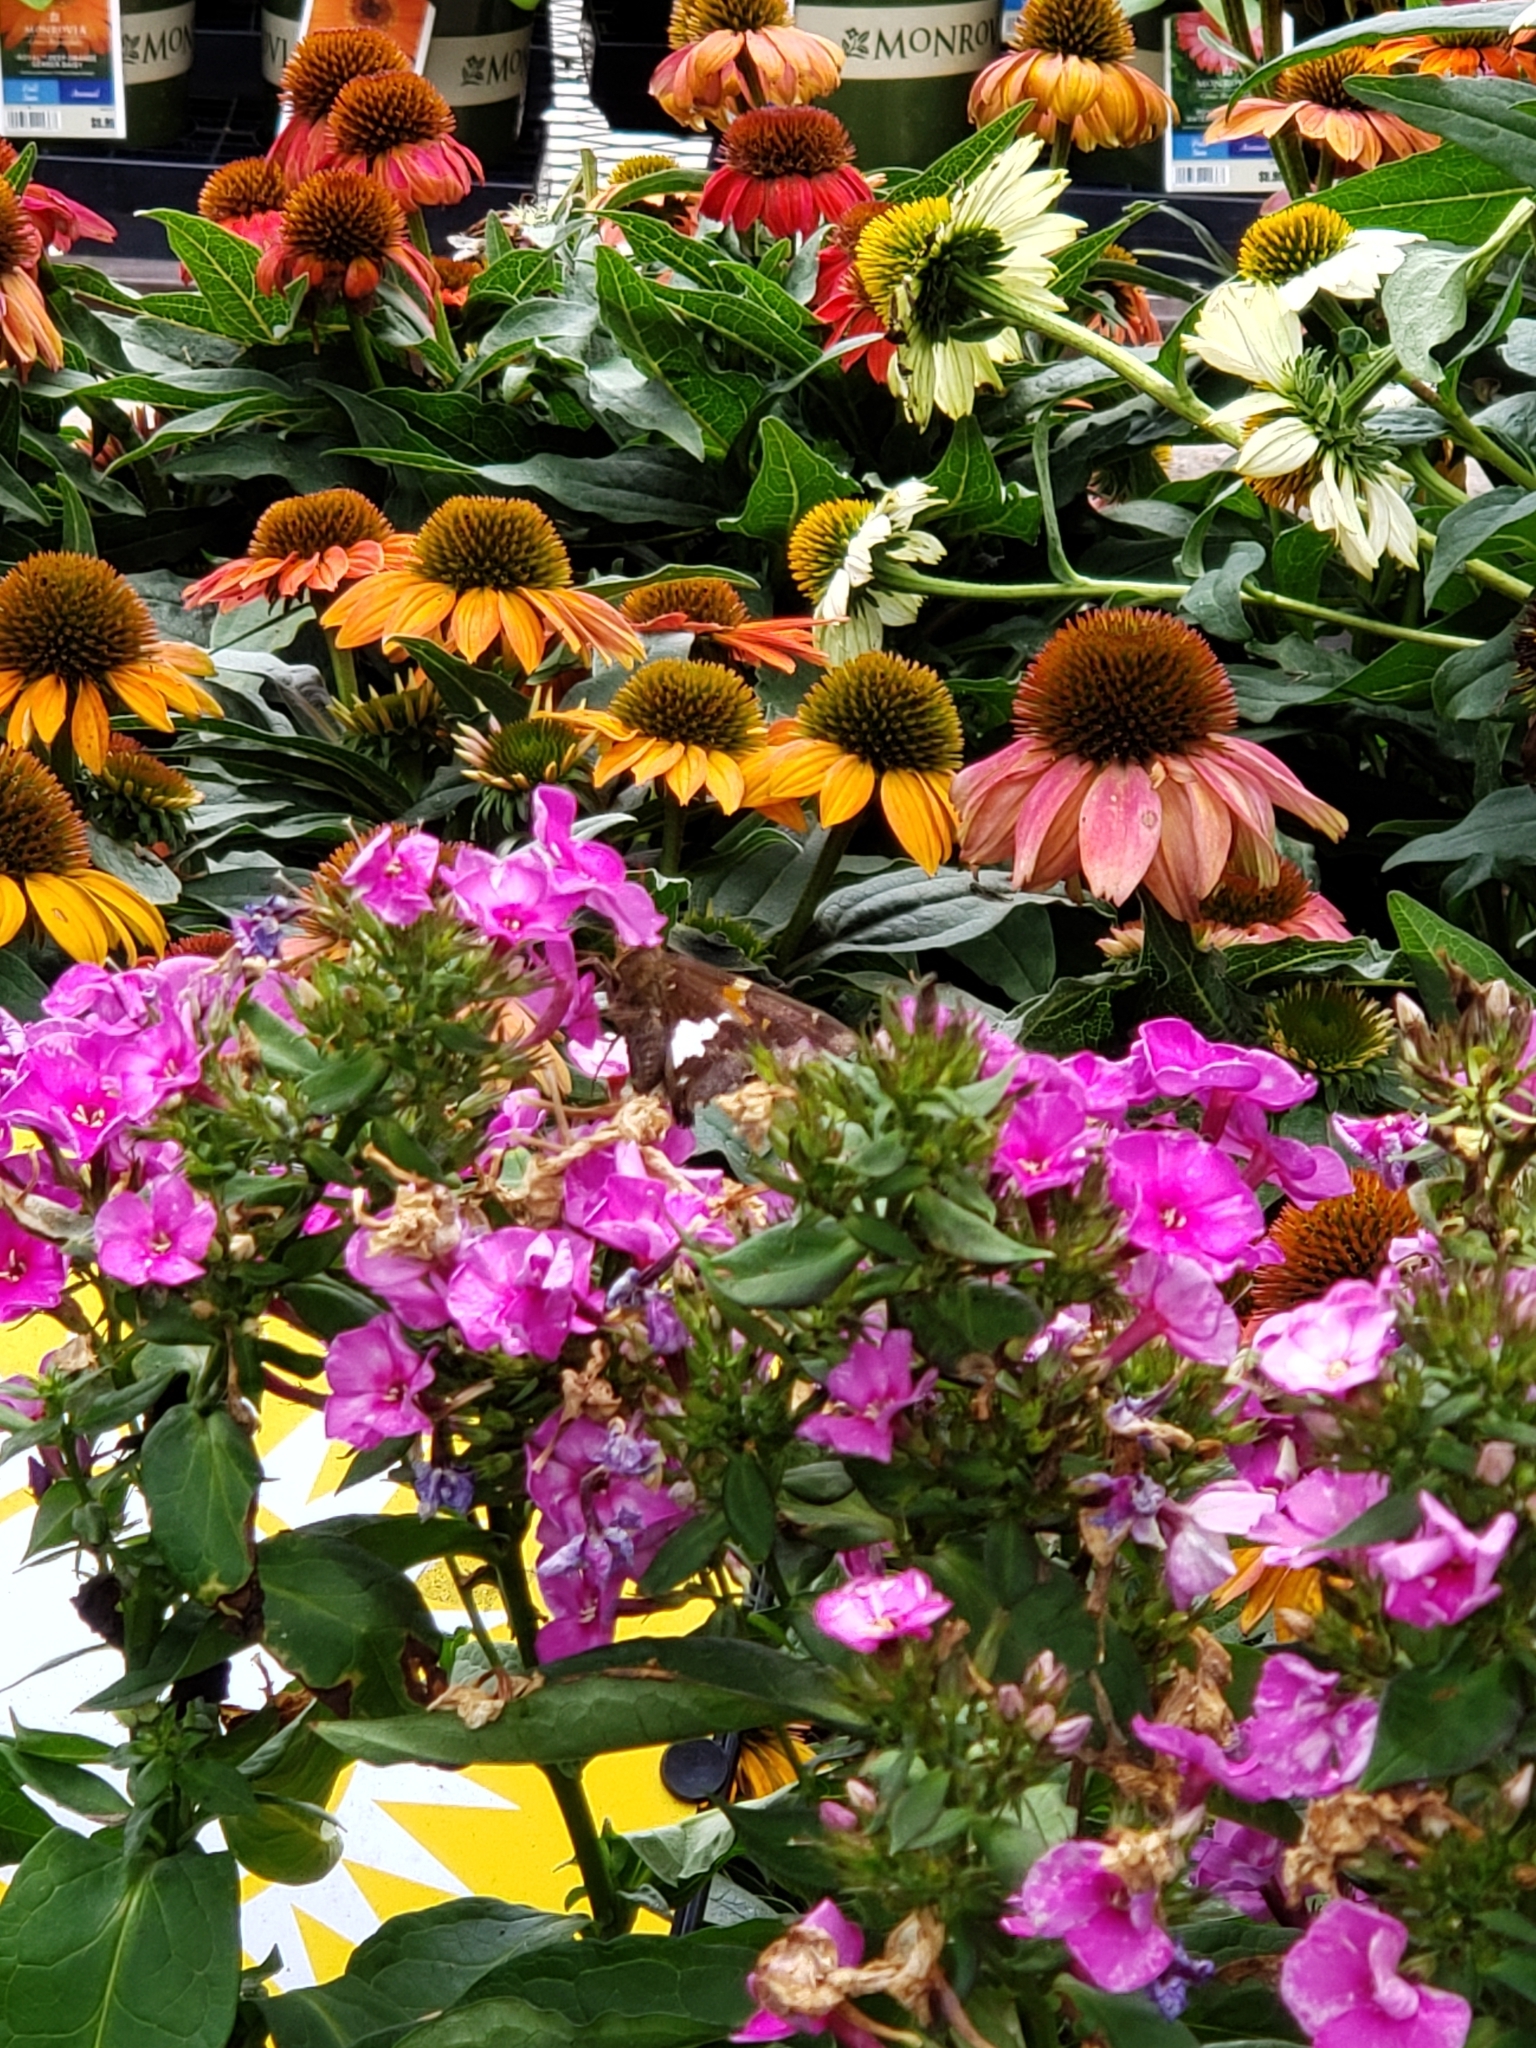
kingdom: Animalia
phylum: Arthropoda
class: Insecta
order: Lepidoptera
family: Hesperiidae
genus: Epargyreus
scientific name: Epargyreus clarus
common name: Silver-spotted skipper
